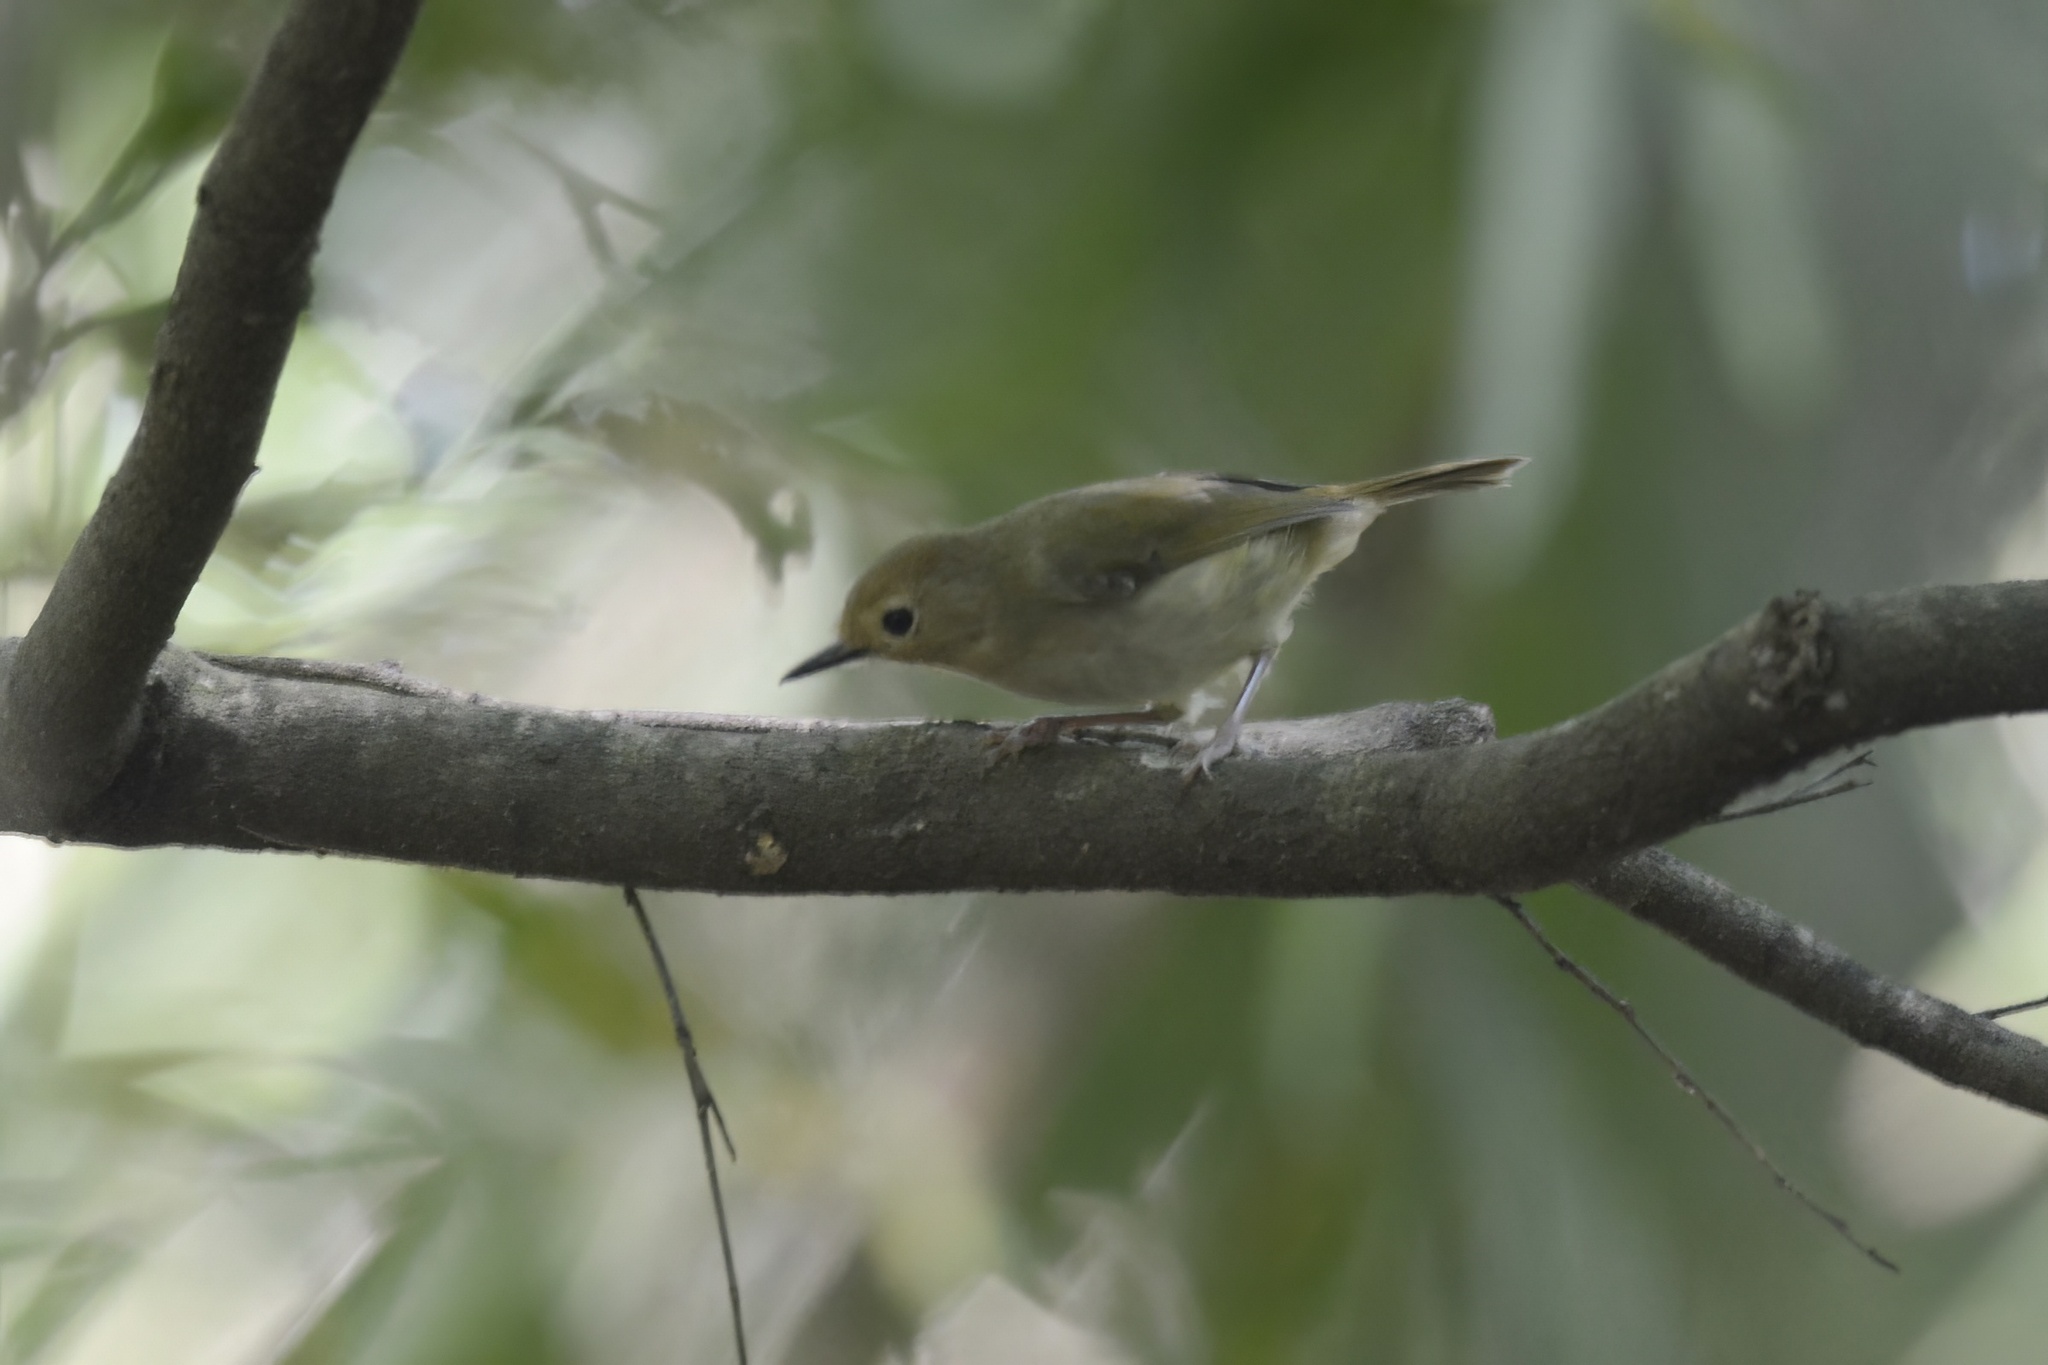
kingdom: Animalia
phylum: Chordata
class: Aves
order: Passeriformes
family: Acanthizidae
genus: Sericornis
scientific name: Sericornis magnirostra
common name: Large-billed scrubwren
